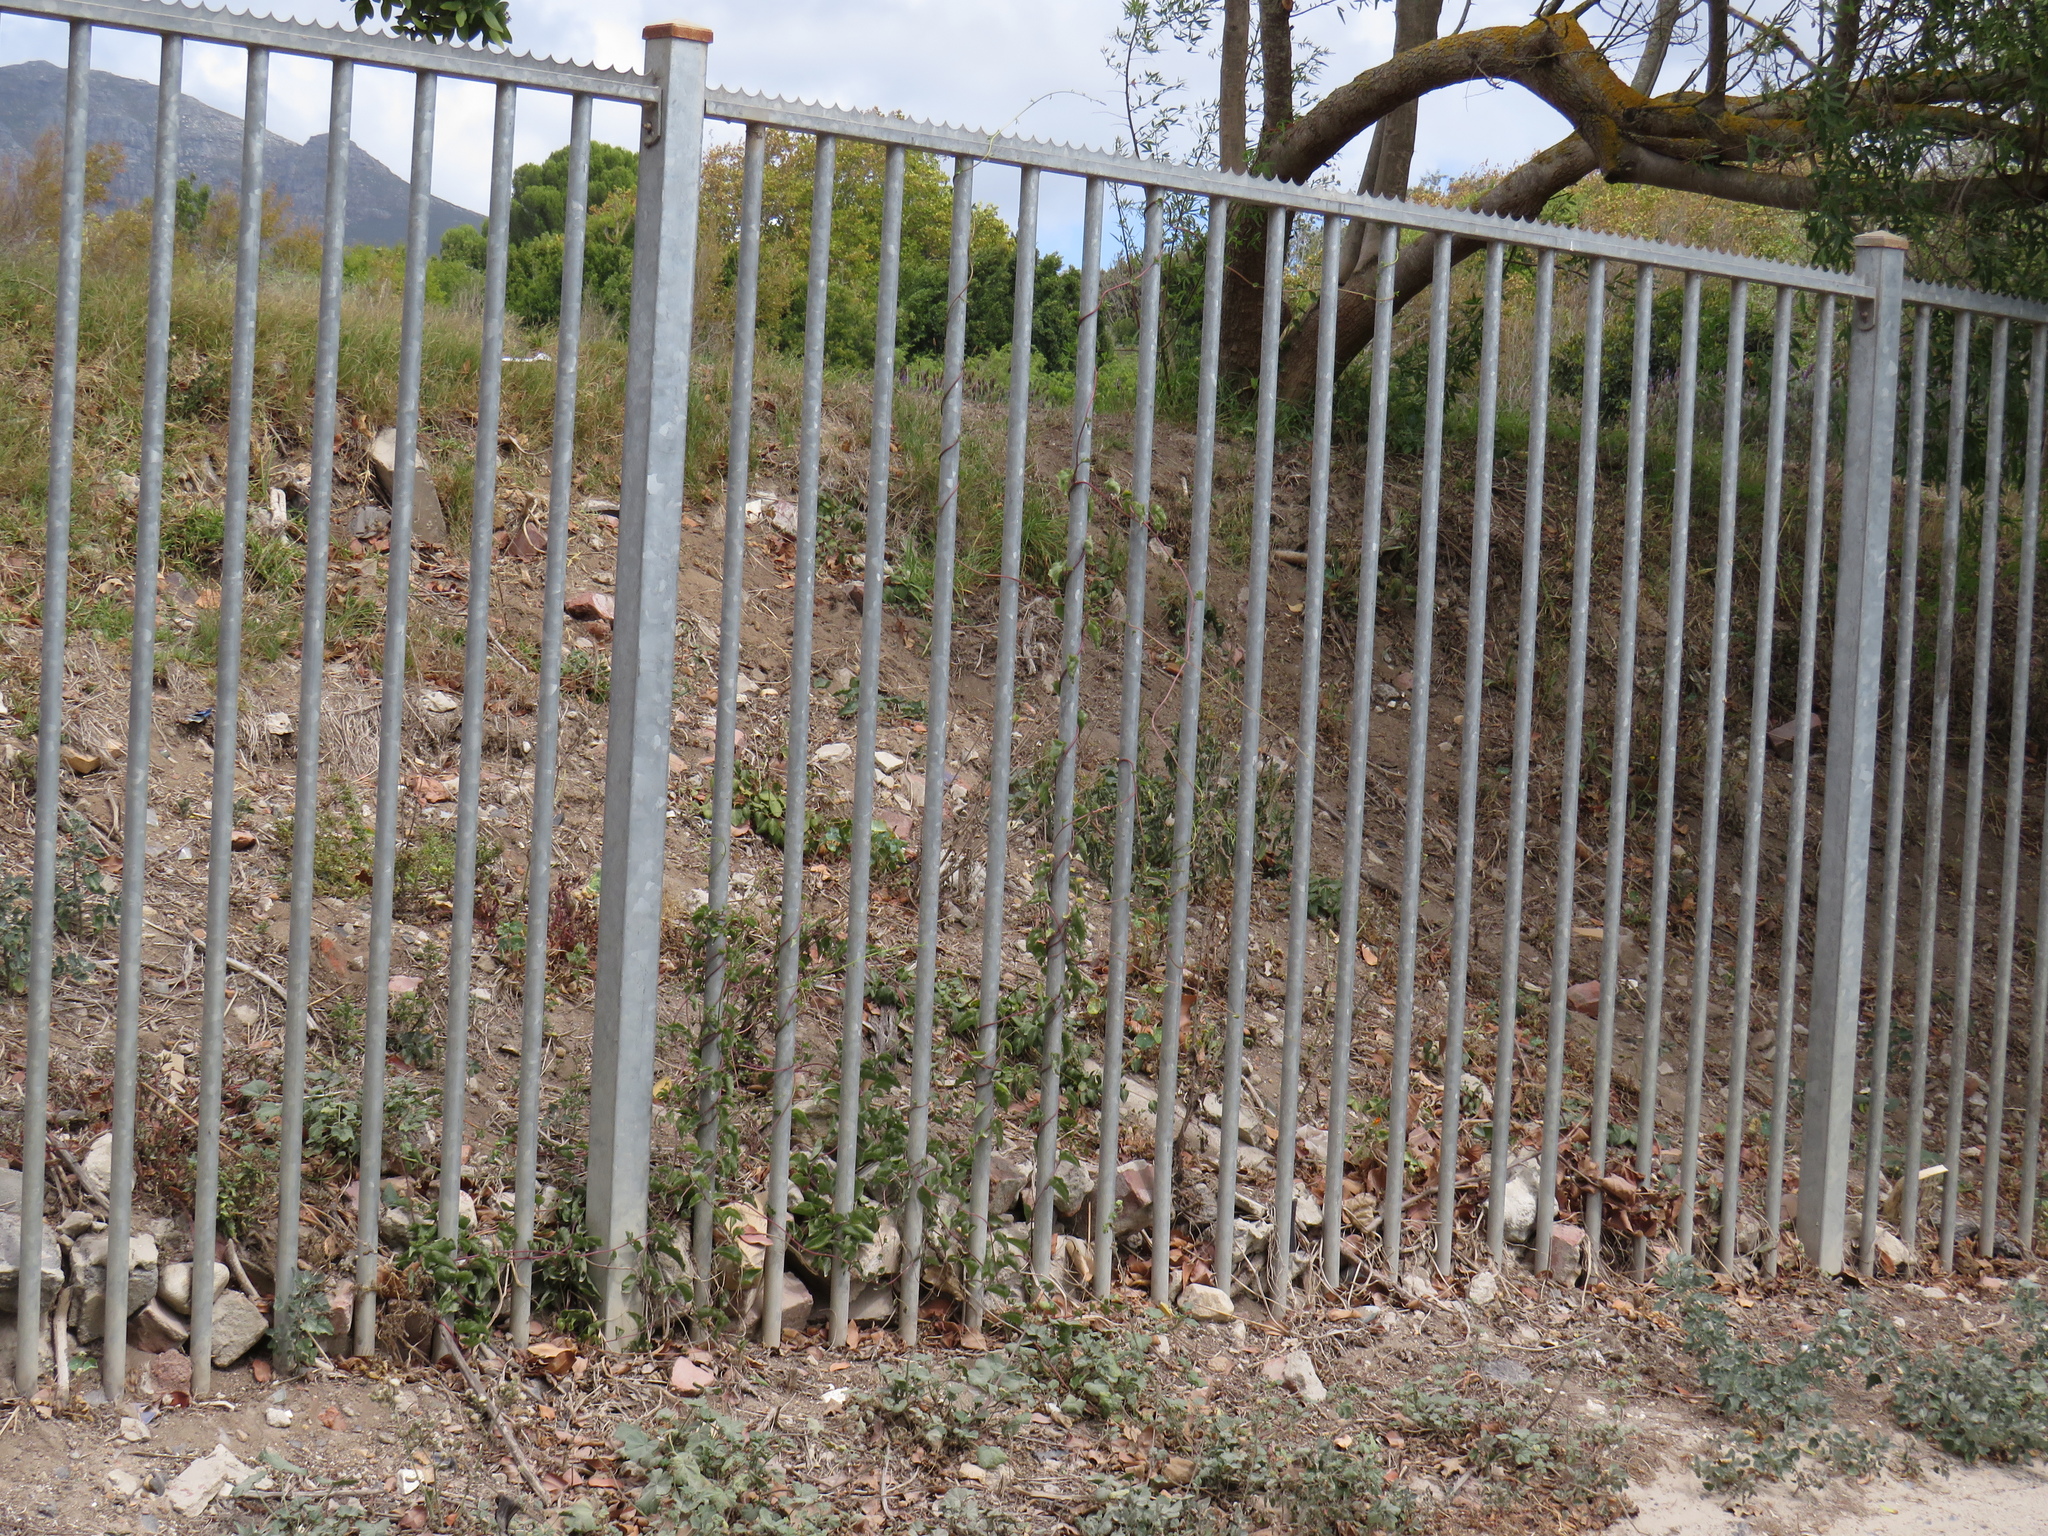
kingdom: Plantae
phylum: Tracheophyta
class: Magnoliopsida
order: Caryophyllales
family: Basellaceae
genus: Anredera
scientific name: Anredera cordifolia
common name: Heartleaf madeiravine
